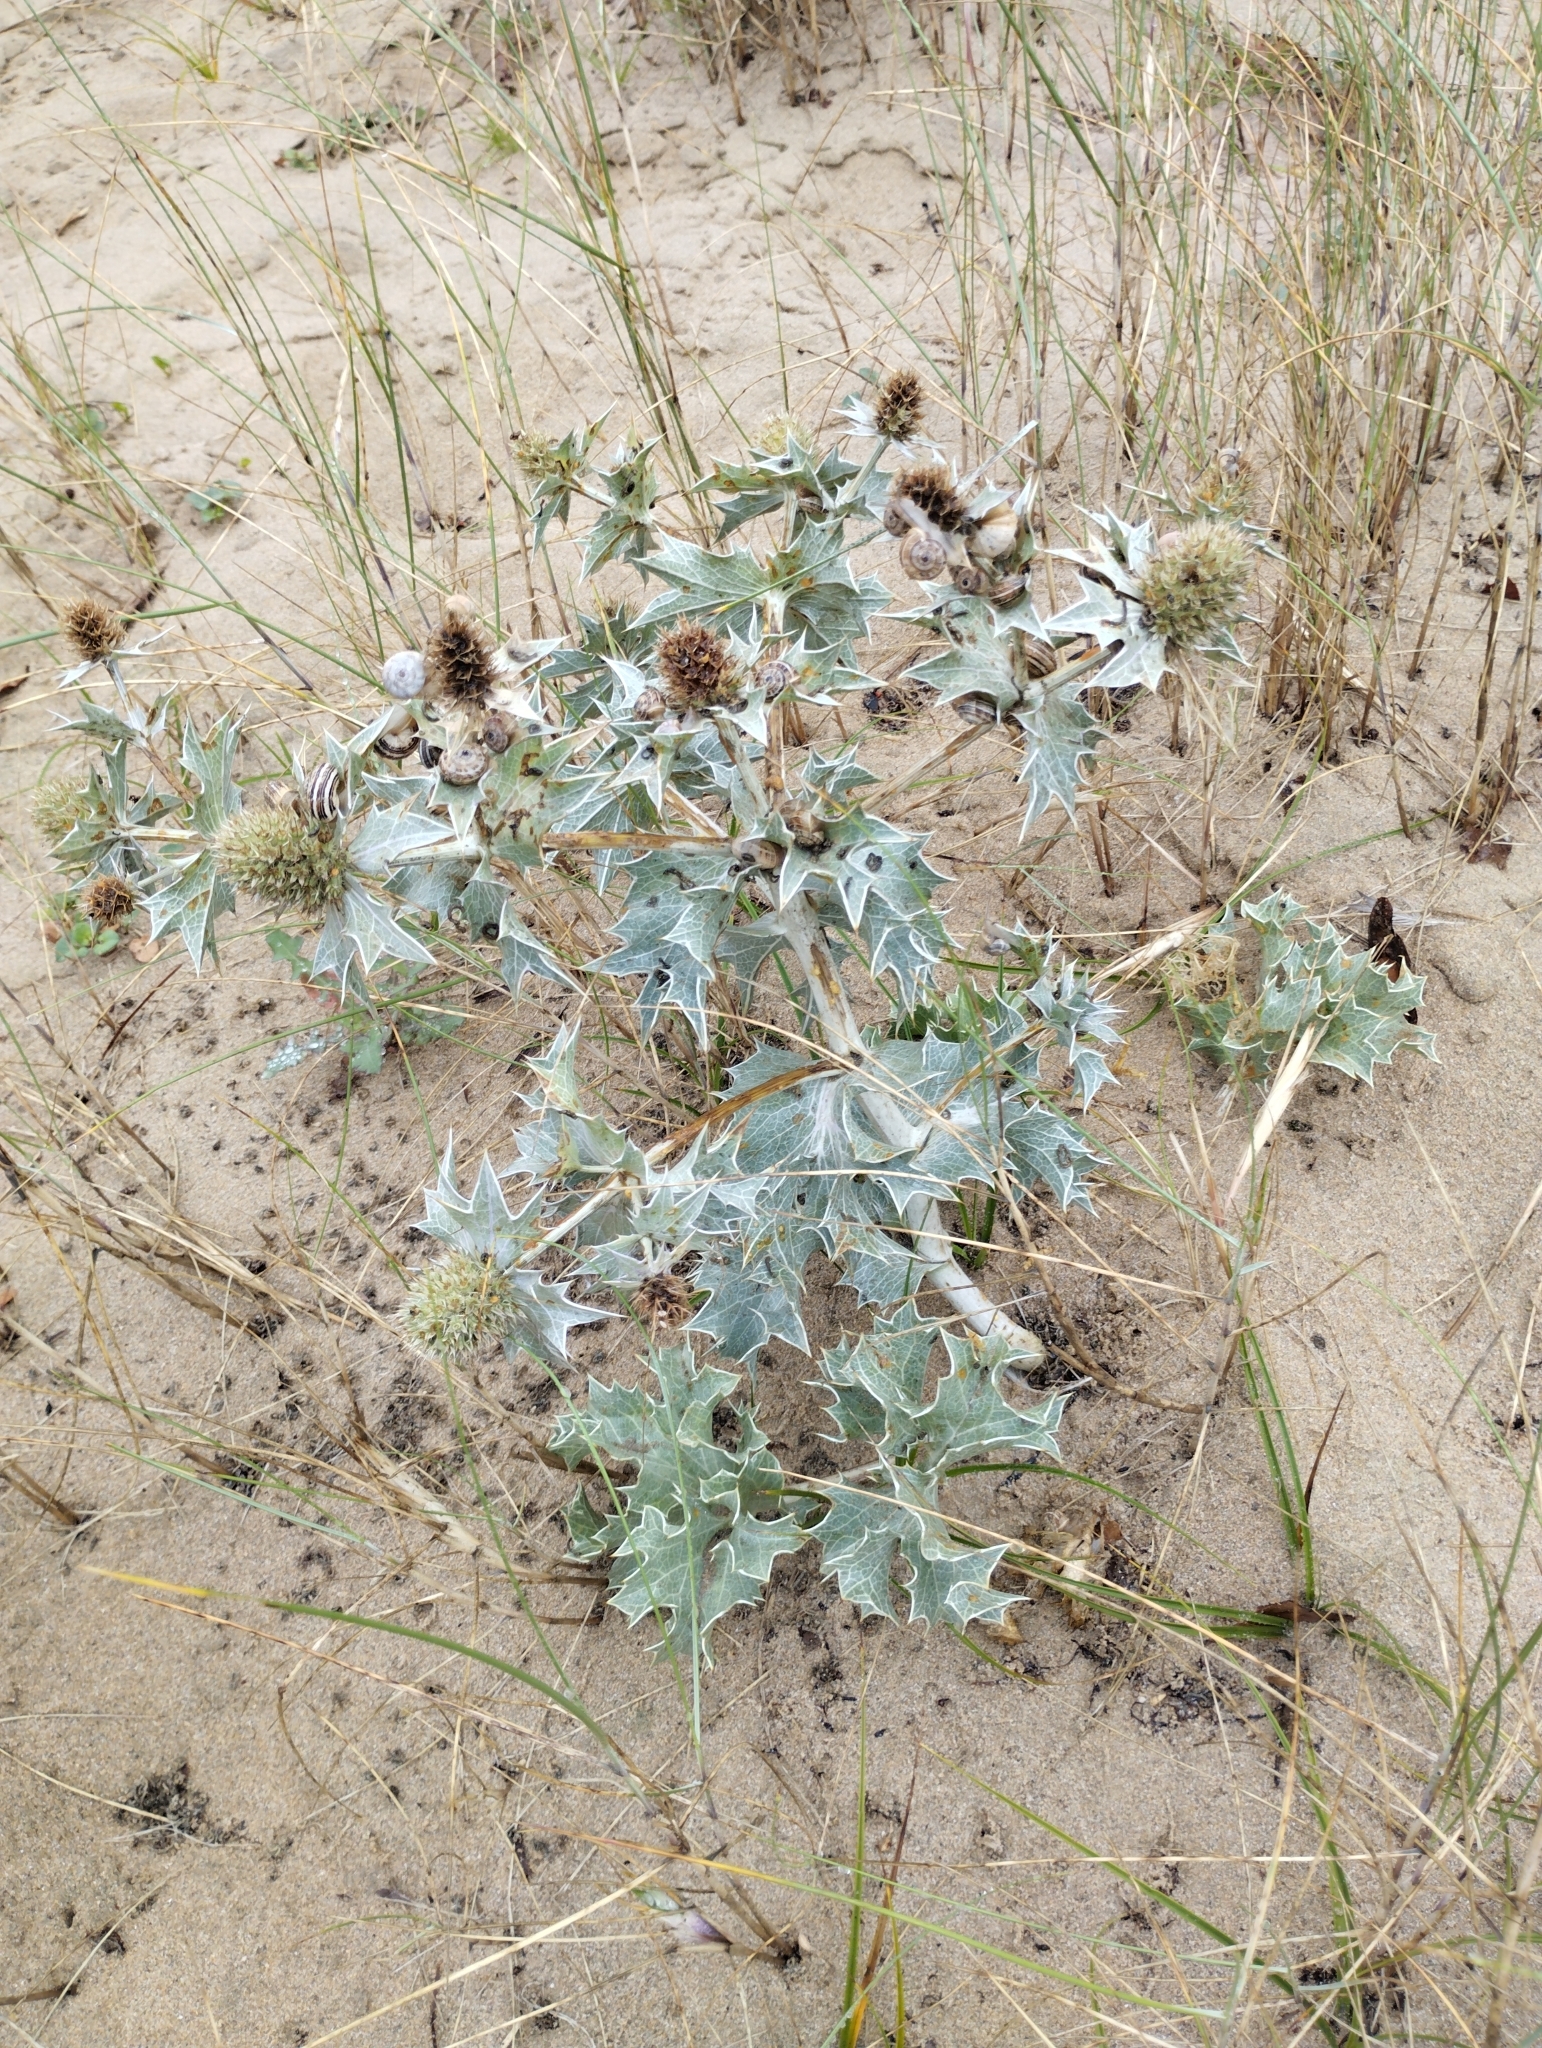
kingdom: Plantae
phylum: Tracheophyta
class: Magnoliopsida
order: Apiales
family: Apiaceae
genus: Eryngium
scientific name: Eryngium maritimum
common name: Sea-holly
